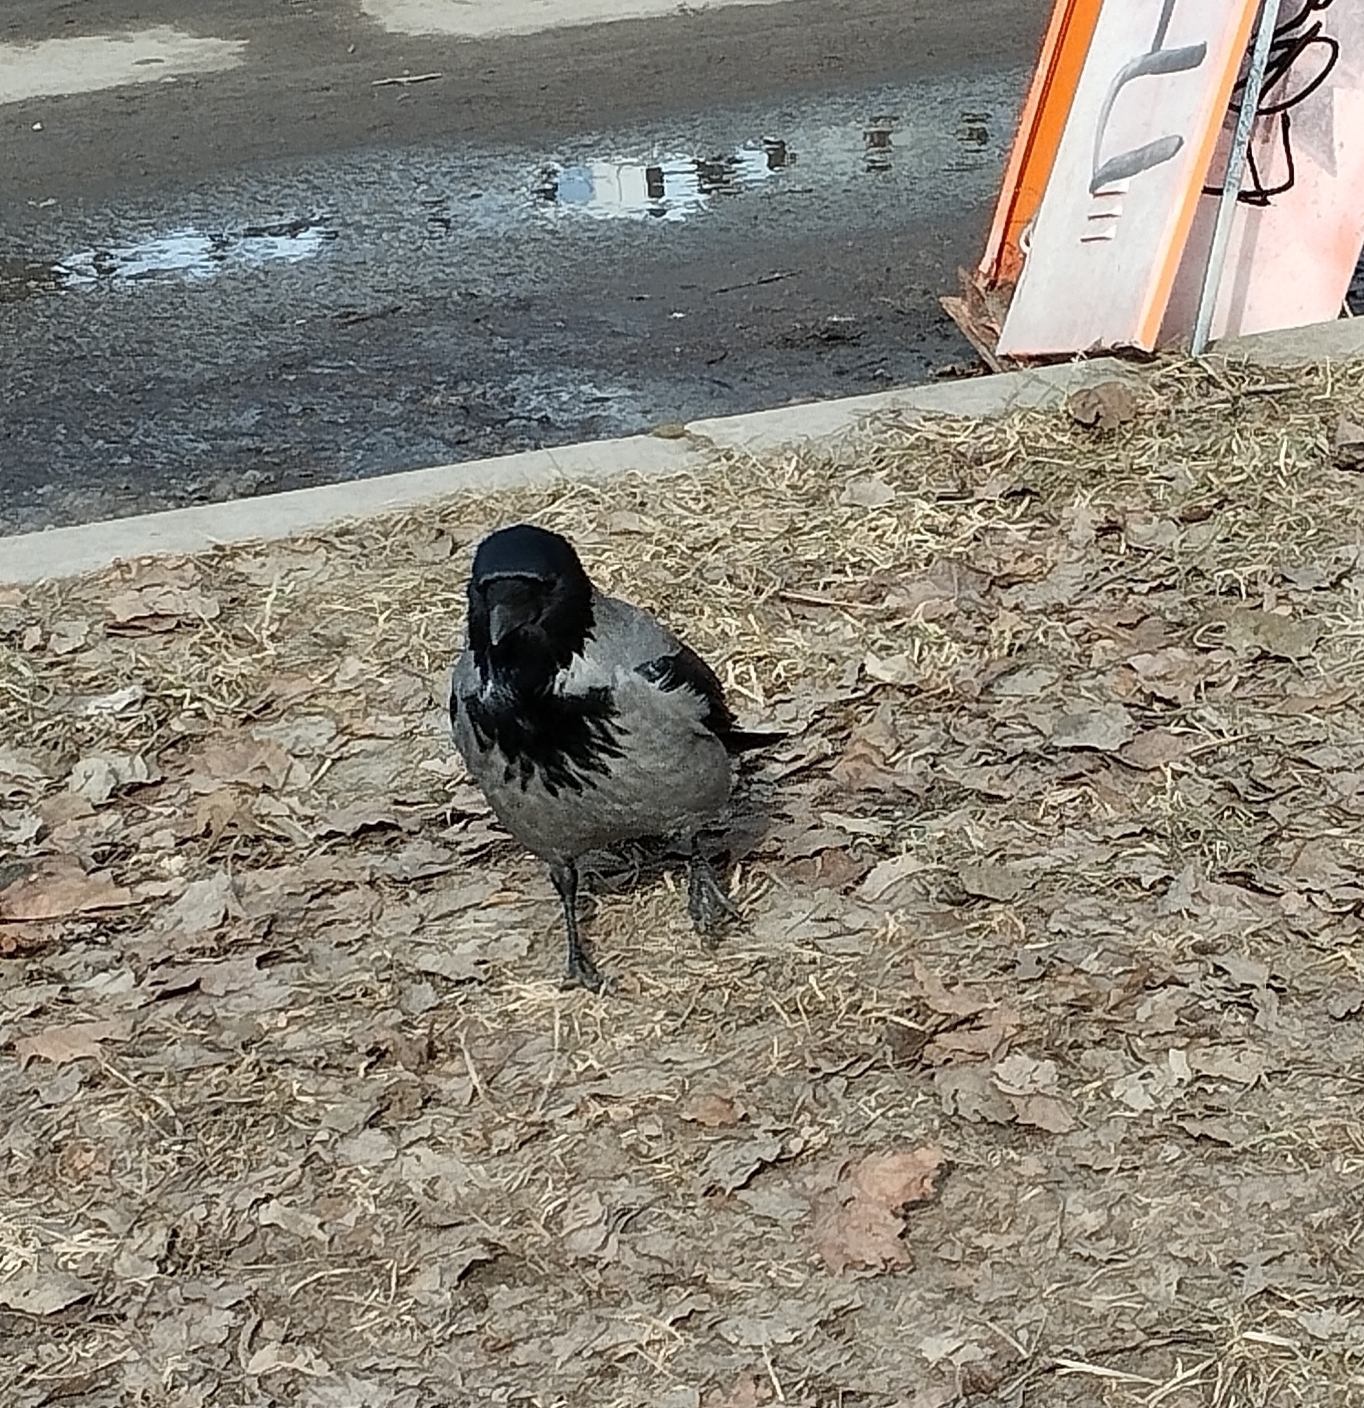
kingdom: Animalia
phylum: Chordata
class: Aves
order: Passeriformes
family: Corvidae
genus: Corvus
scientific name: Corvus cornix
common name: Hooded crow
